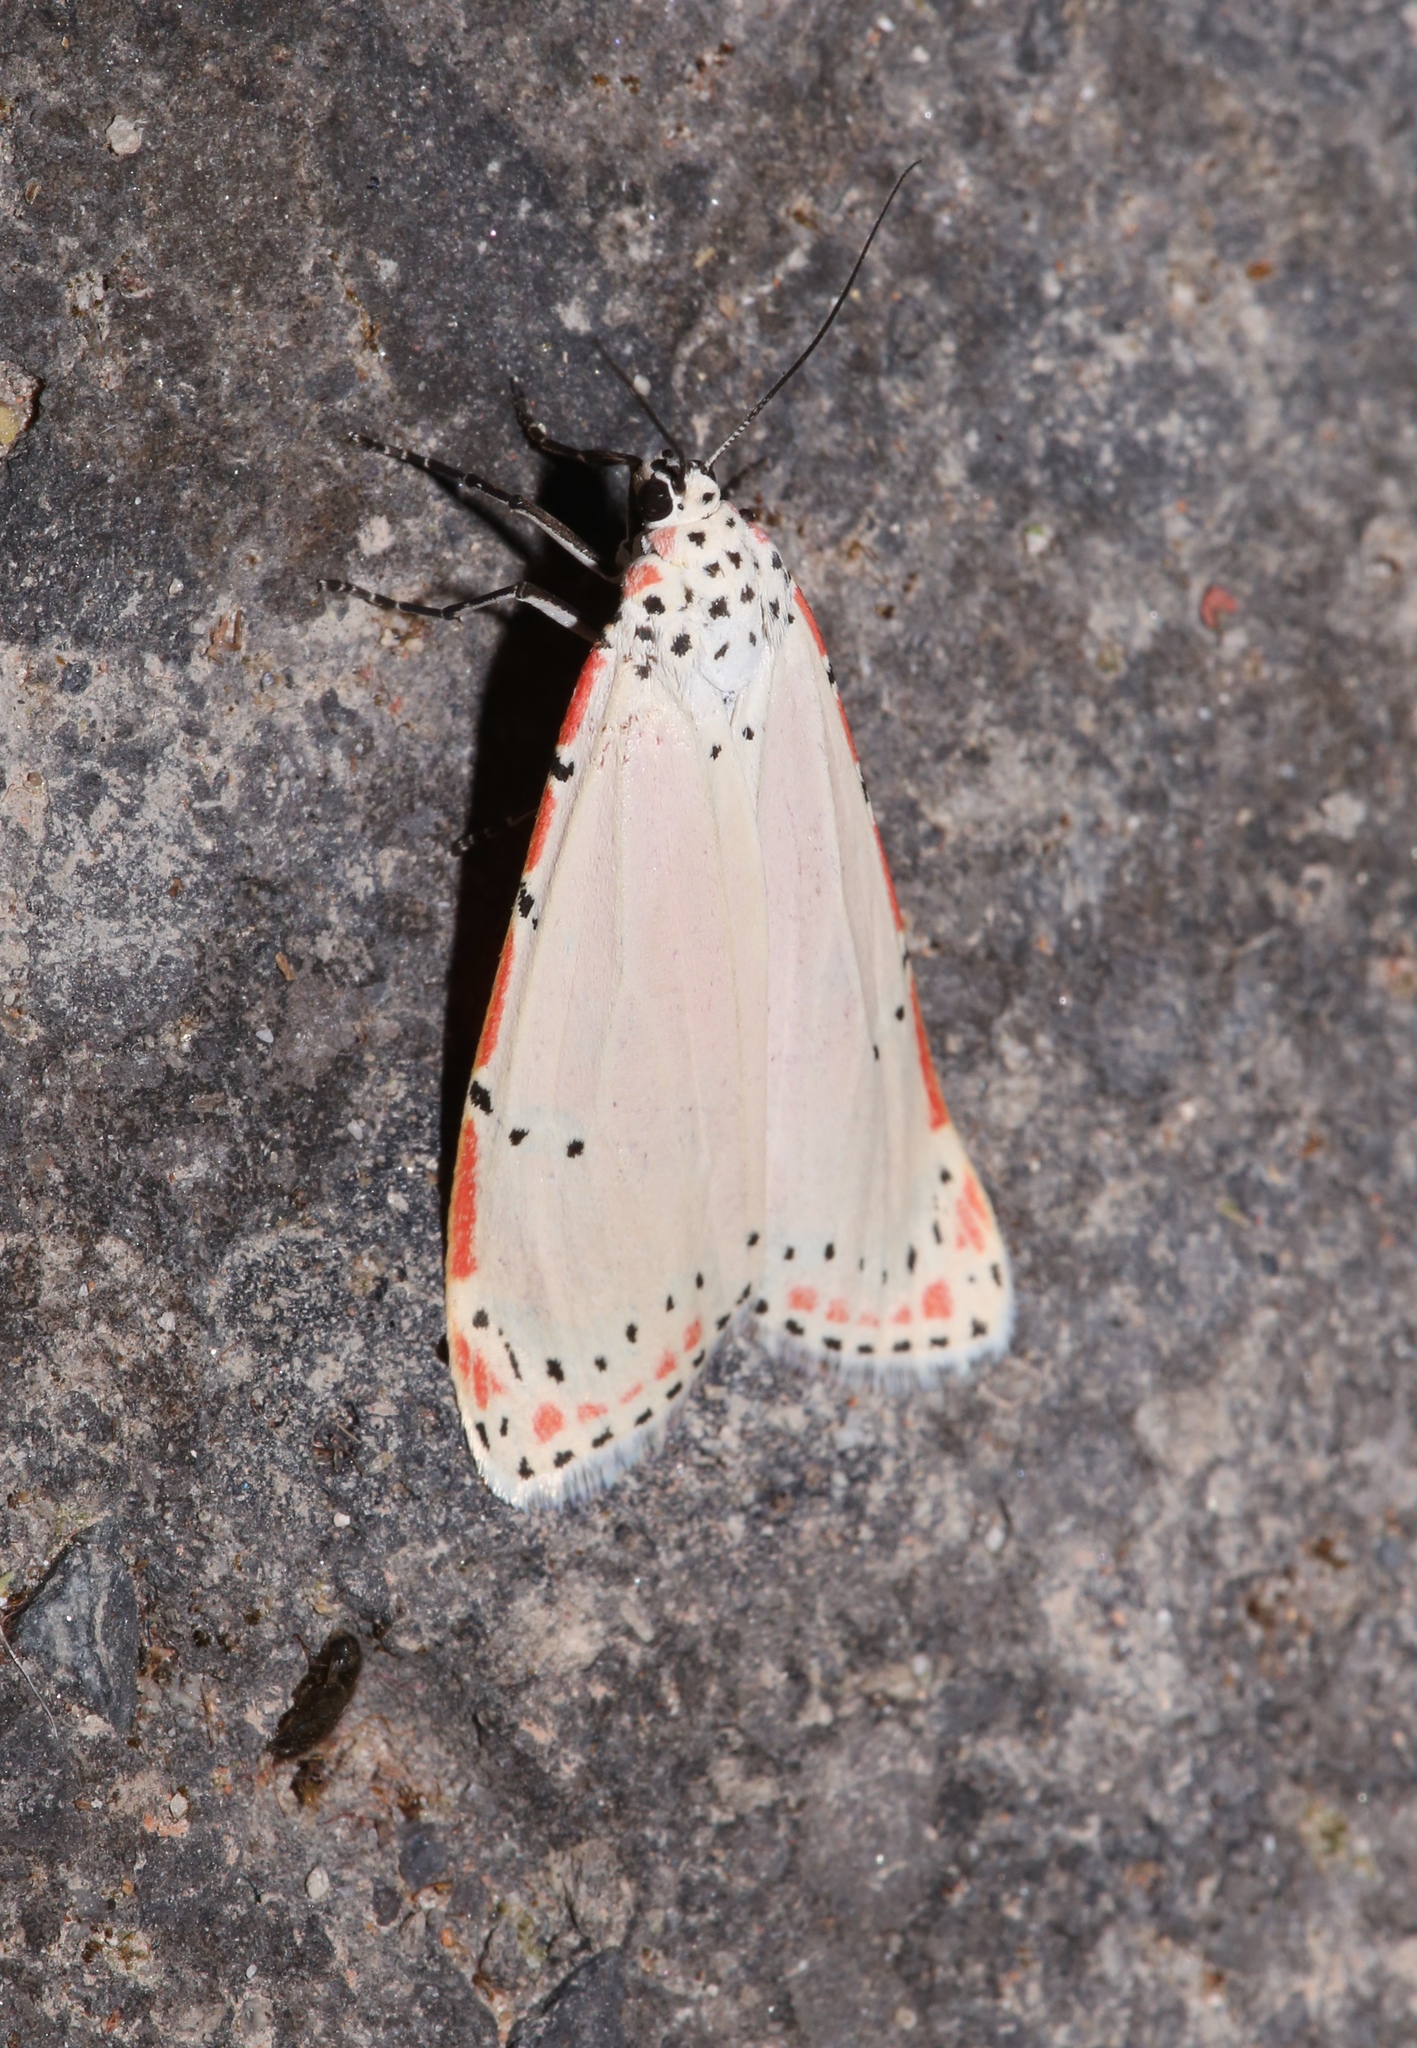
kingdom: Animalia
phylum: Arthropoda
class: Insecta
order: Lepidoptera
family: Erebidae
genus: Utetheisa
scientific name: Utetheisa ornatrix
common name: Beautiful utetheisa
